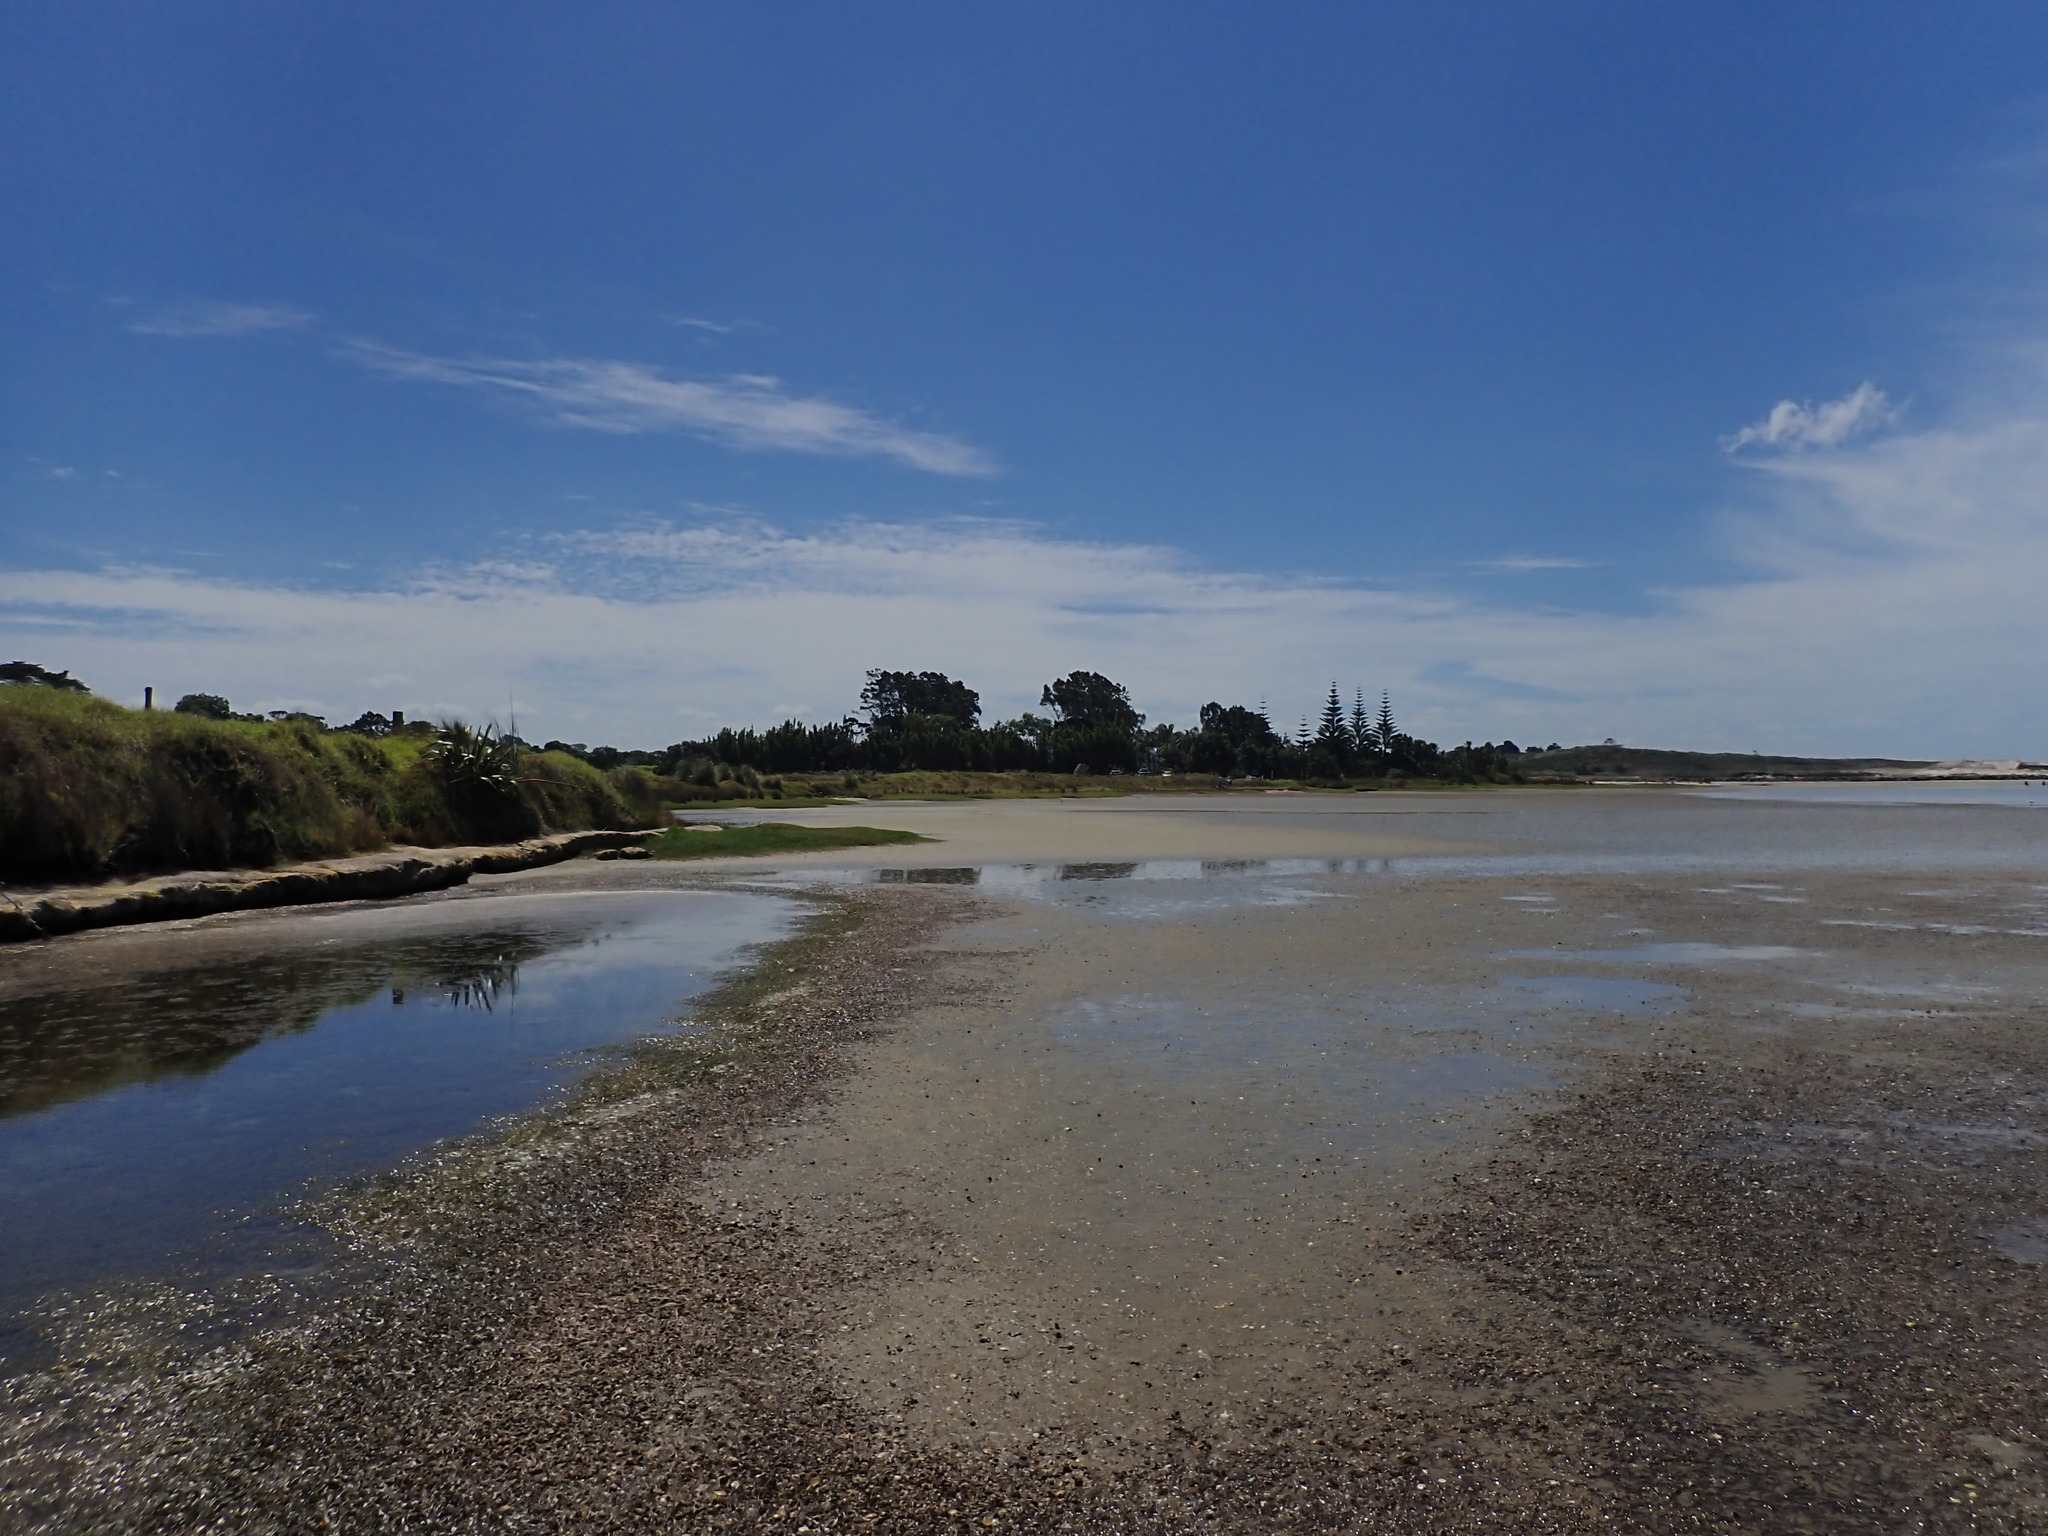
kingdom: Plantae
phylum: Tracheophyta
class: Liliopsida
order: Alismatales
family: Zosteraceae
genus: Zostera
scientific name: Zostera muelleri
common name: Species code: zc
